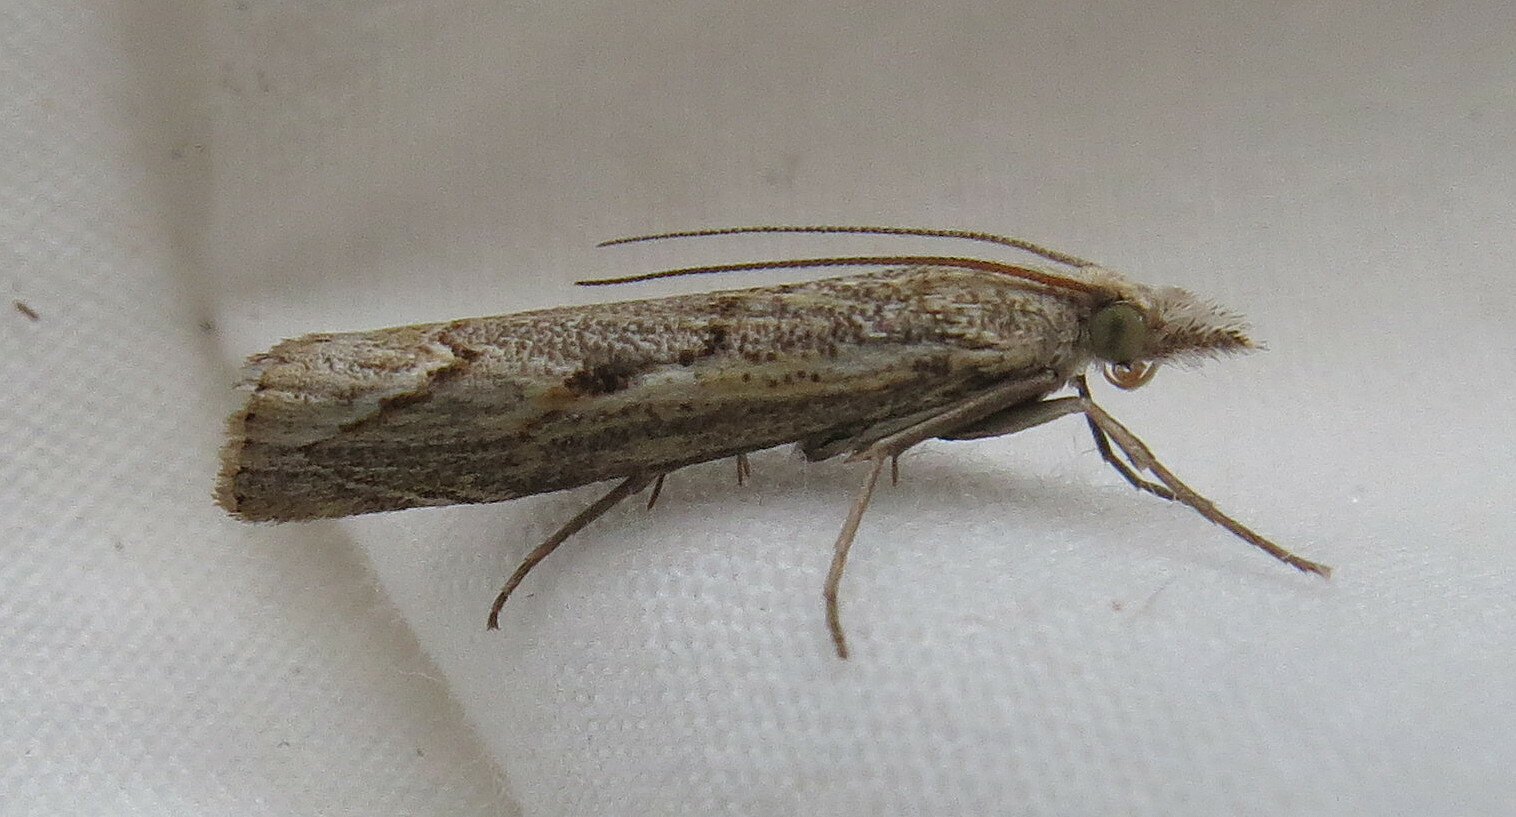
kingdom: Animalia
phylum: Arthropoda
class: Insecta
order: Lepidoptera
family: Crambidae
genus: Agriphila
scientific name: Agriphila geniculea
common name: Elbow-stripe grass-veneer
